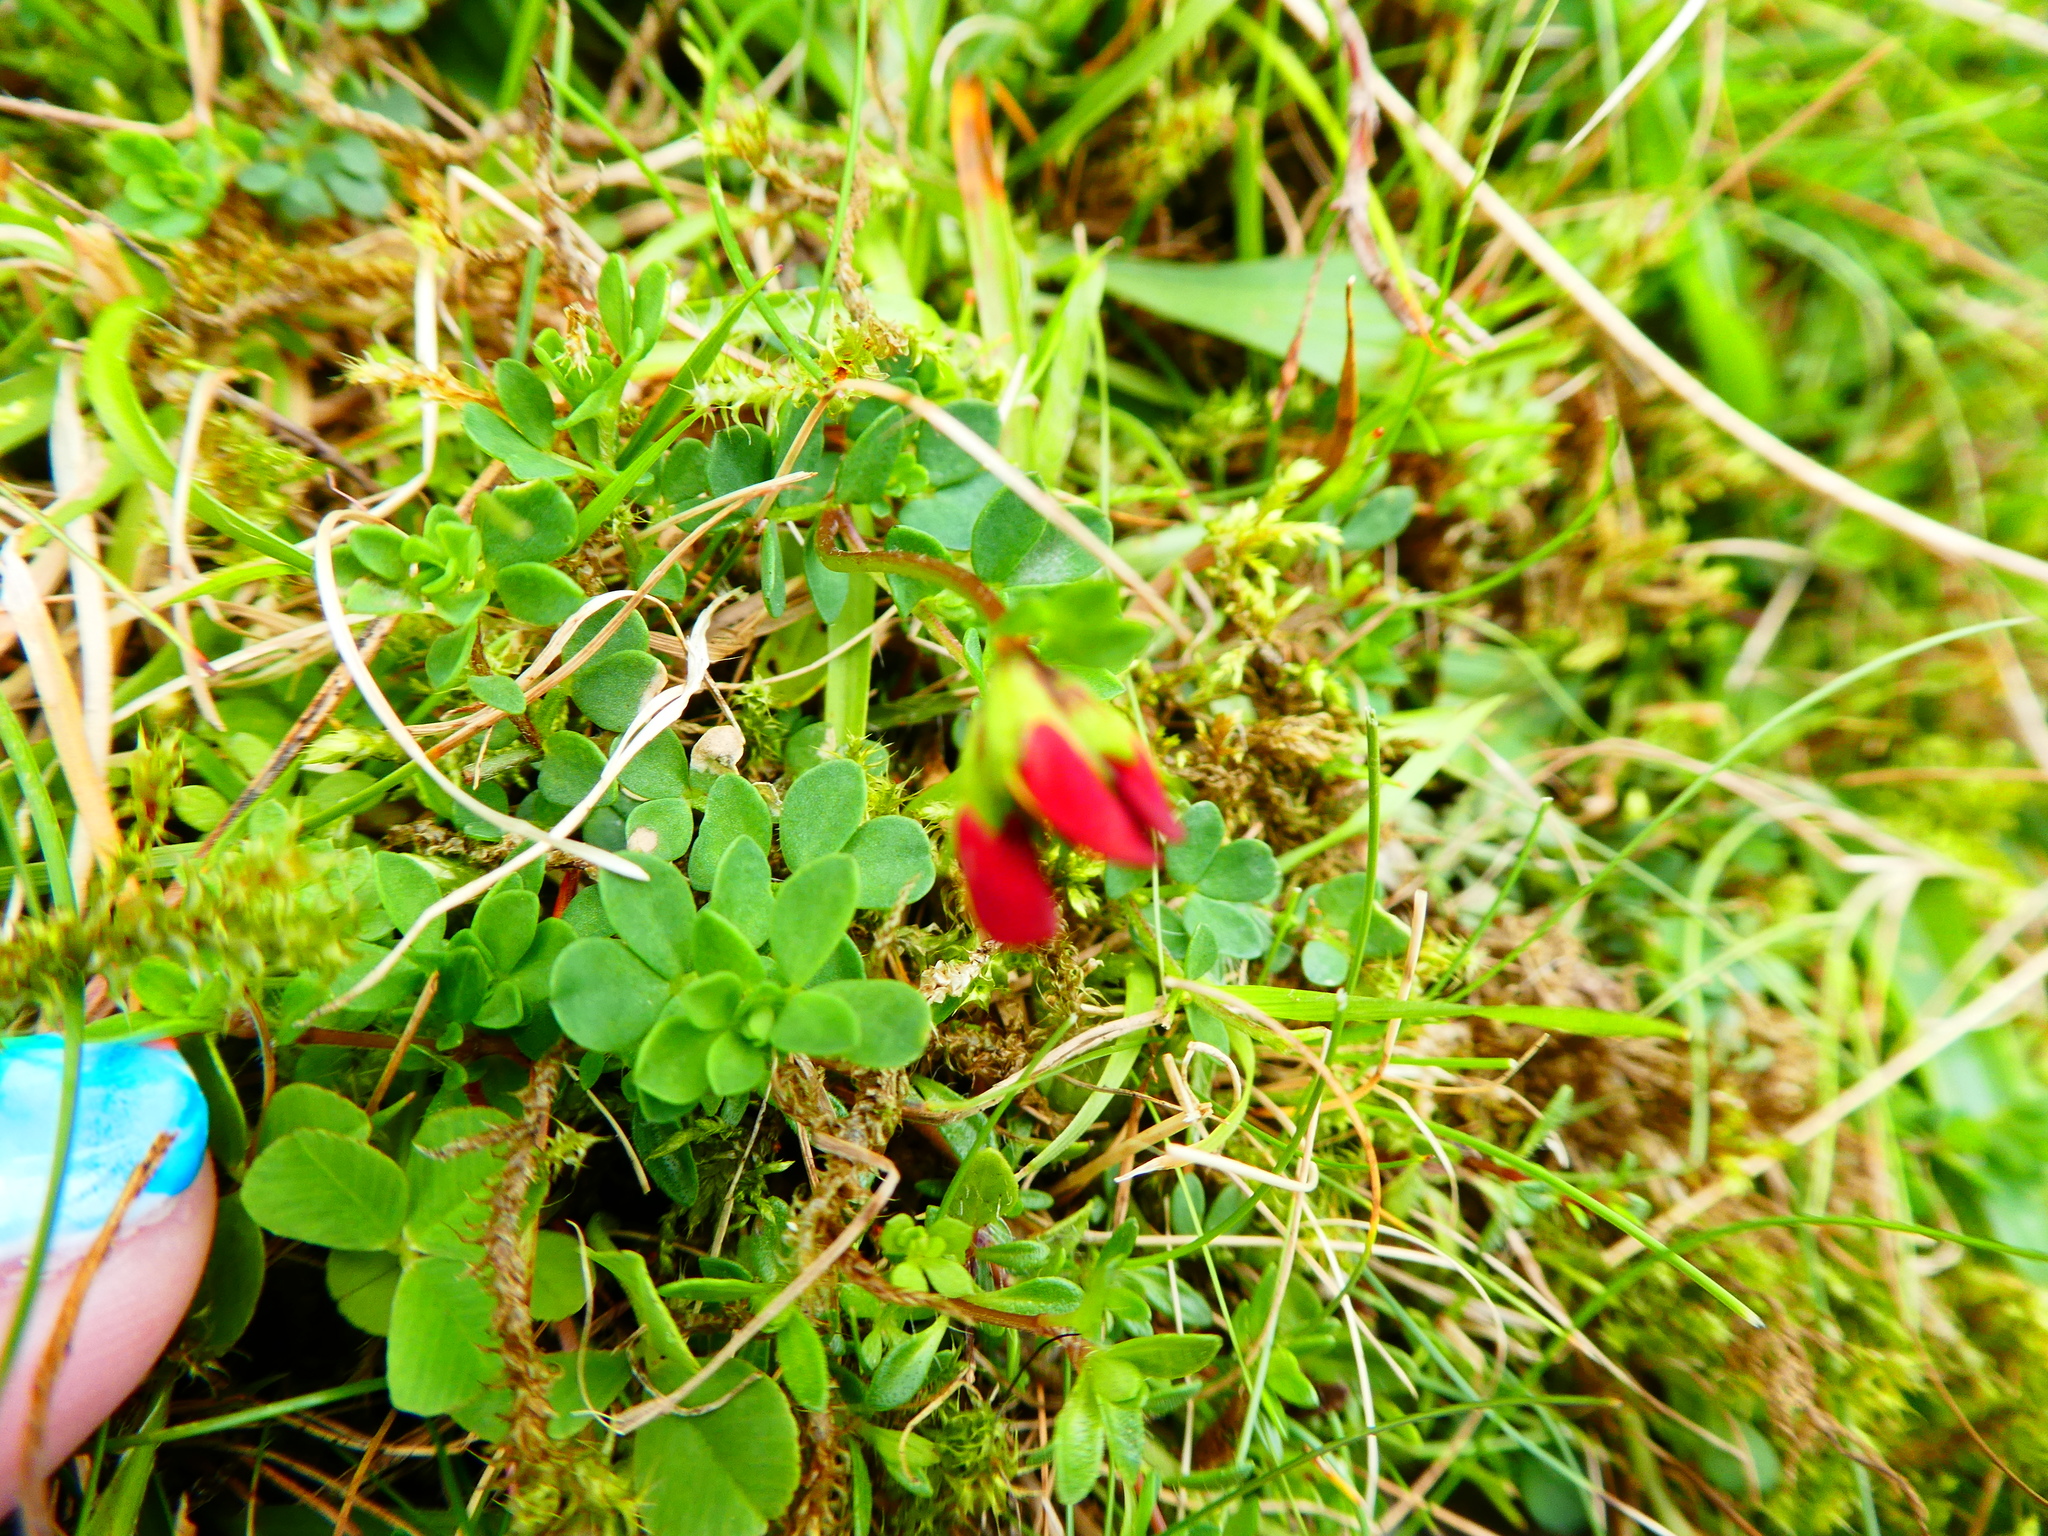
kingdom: Plantae
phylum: Tracheophyta
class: Magnoliopsida
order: Fabales
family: Fabaceae
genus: Lotus
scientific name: Lotus corniculatus
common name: Common bird's-foot-trefoil
